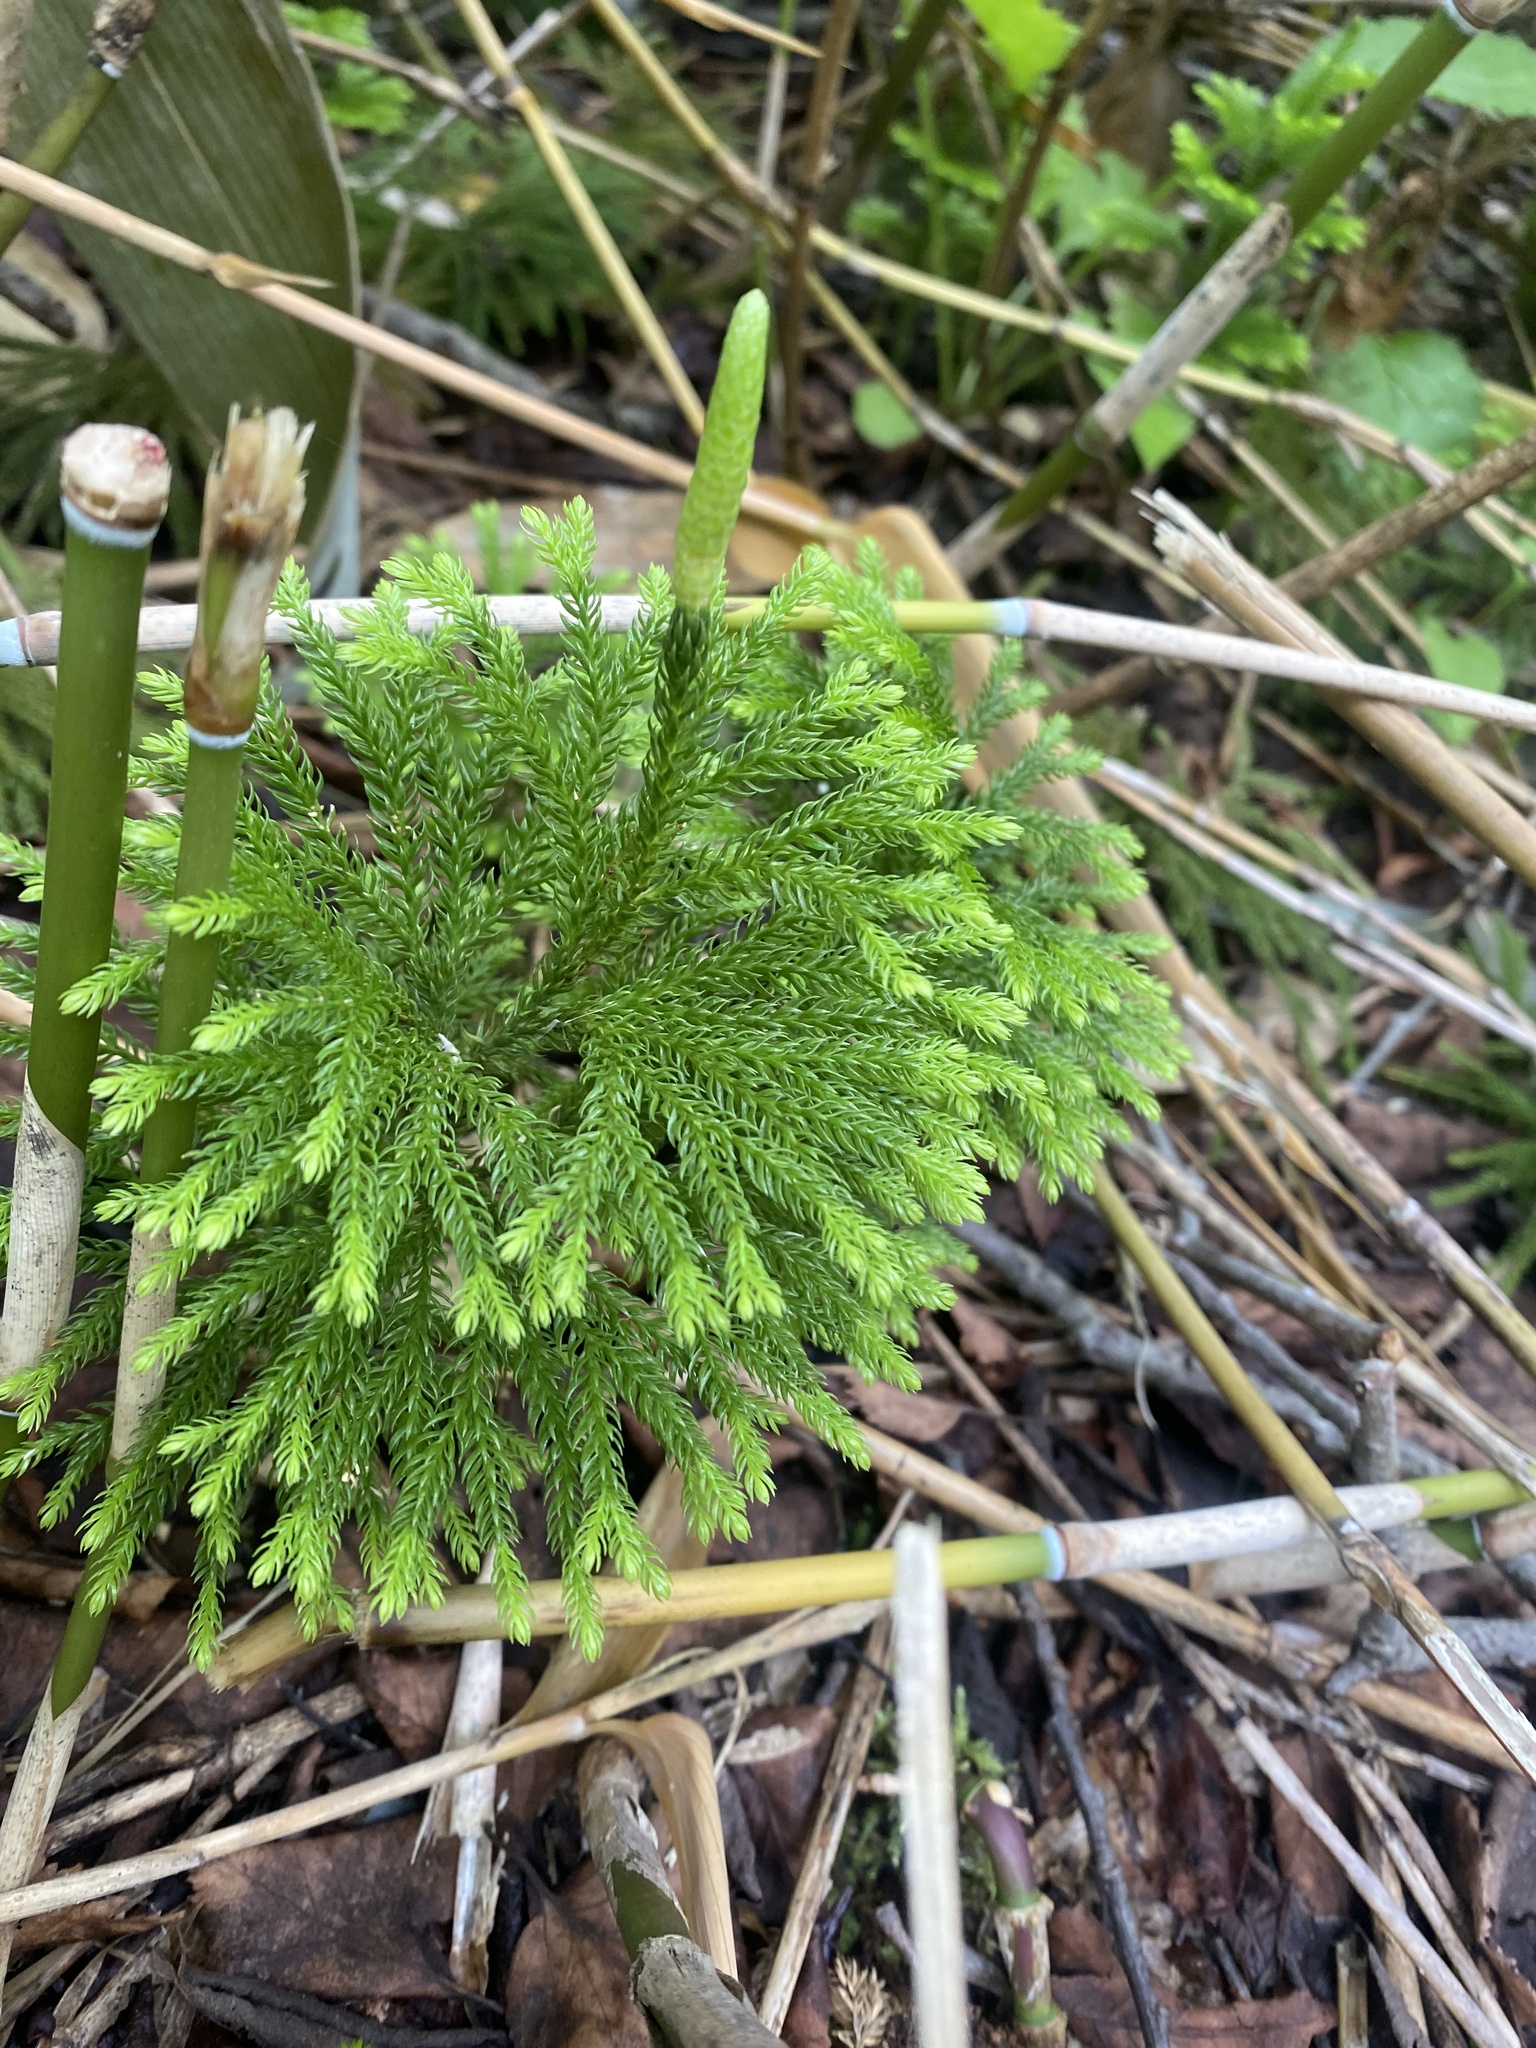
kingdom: Plantae
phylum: Tracheophyta
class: Lycopodiopsida
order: Lycopodiales
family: Lycopodiaceae
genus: Dendrolycopodium
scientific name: Dendrolycopodium dendroideum
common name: Northern tree-clubmoss
